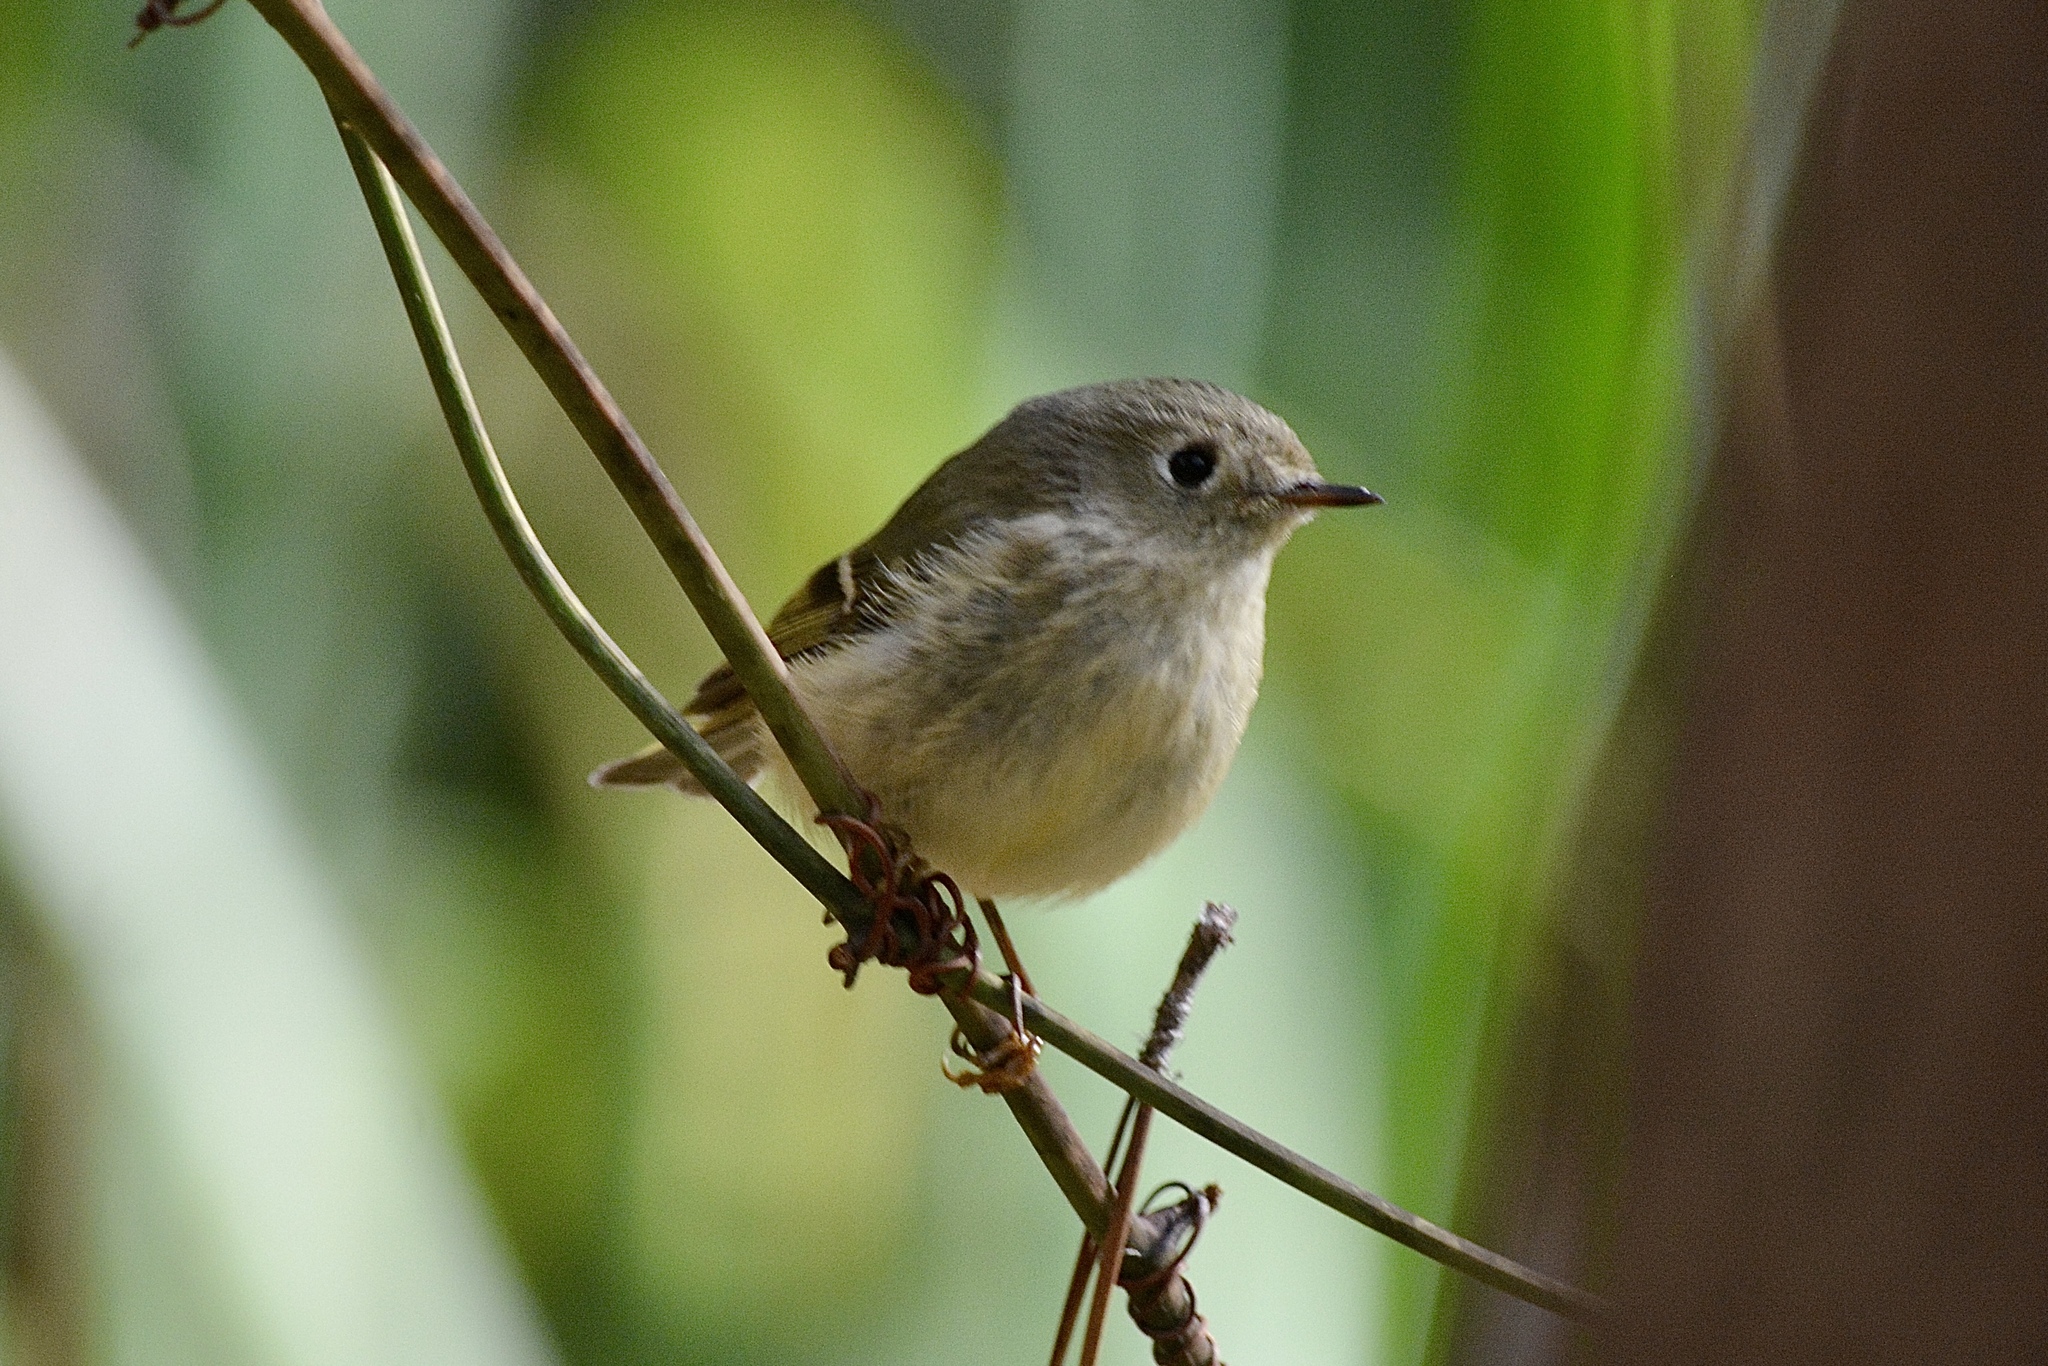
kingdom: Animalia
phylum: Chordata
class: Aves
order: Passeriformes
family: Regulidae
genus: Regulus
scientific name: Regulus calendula
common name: Ruby-crowned kinglet
